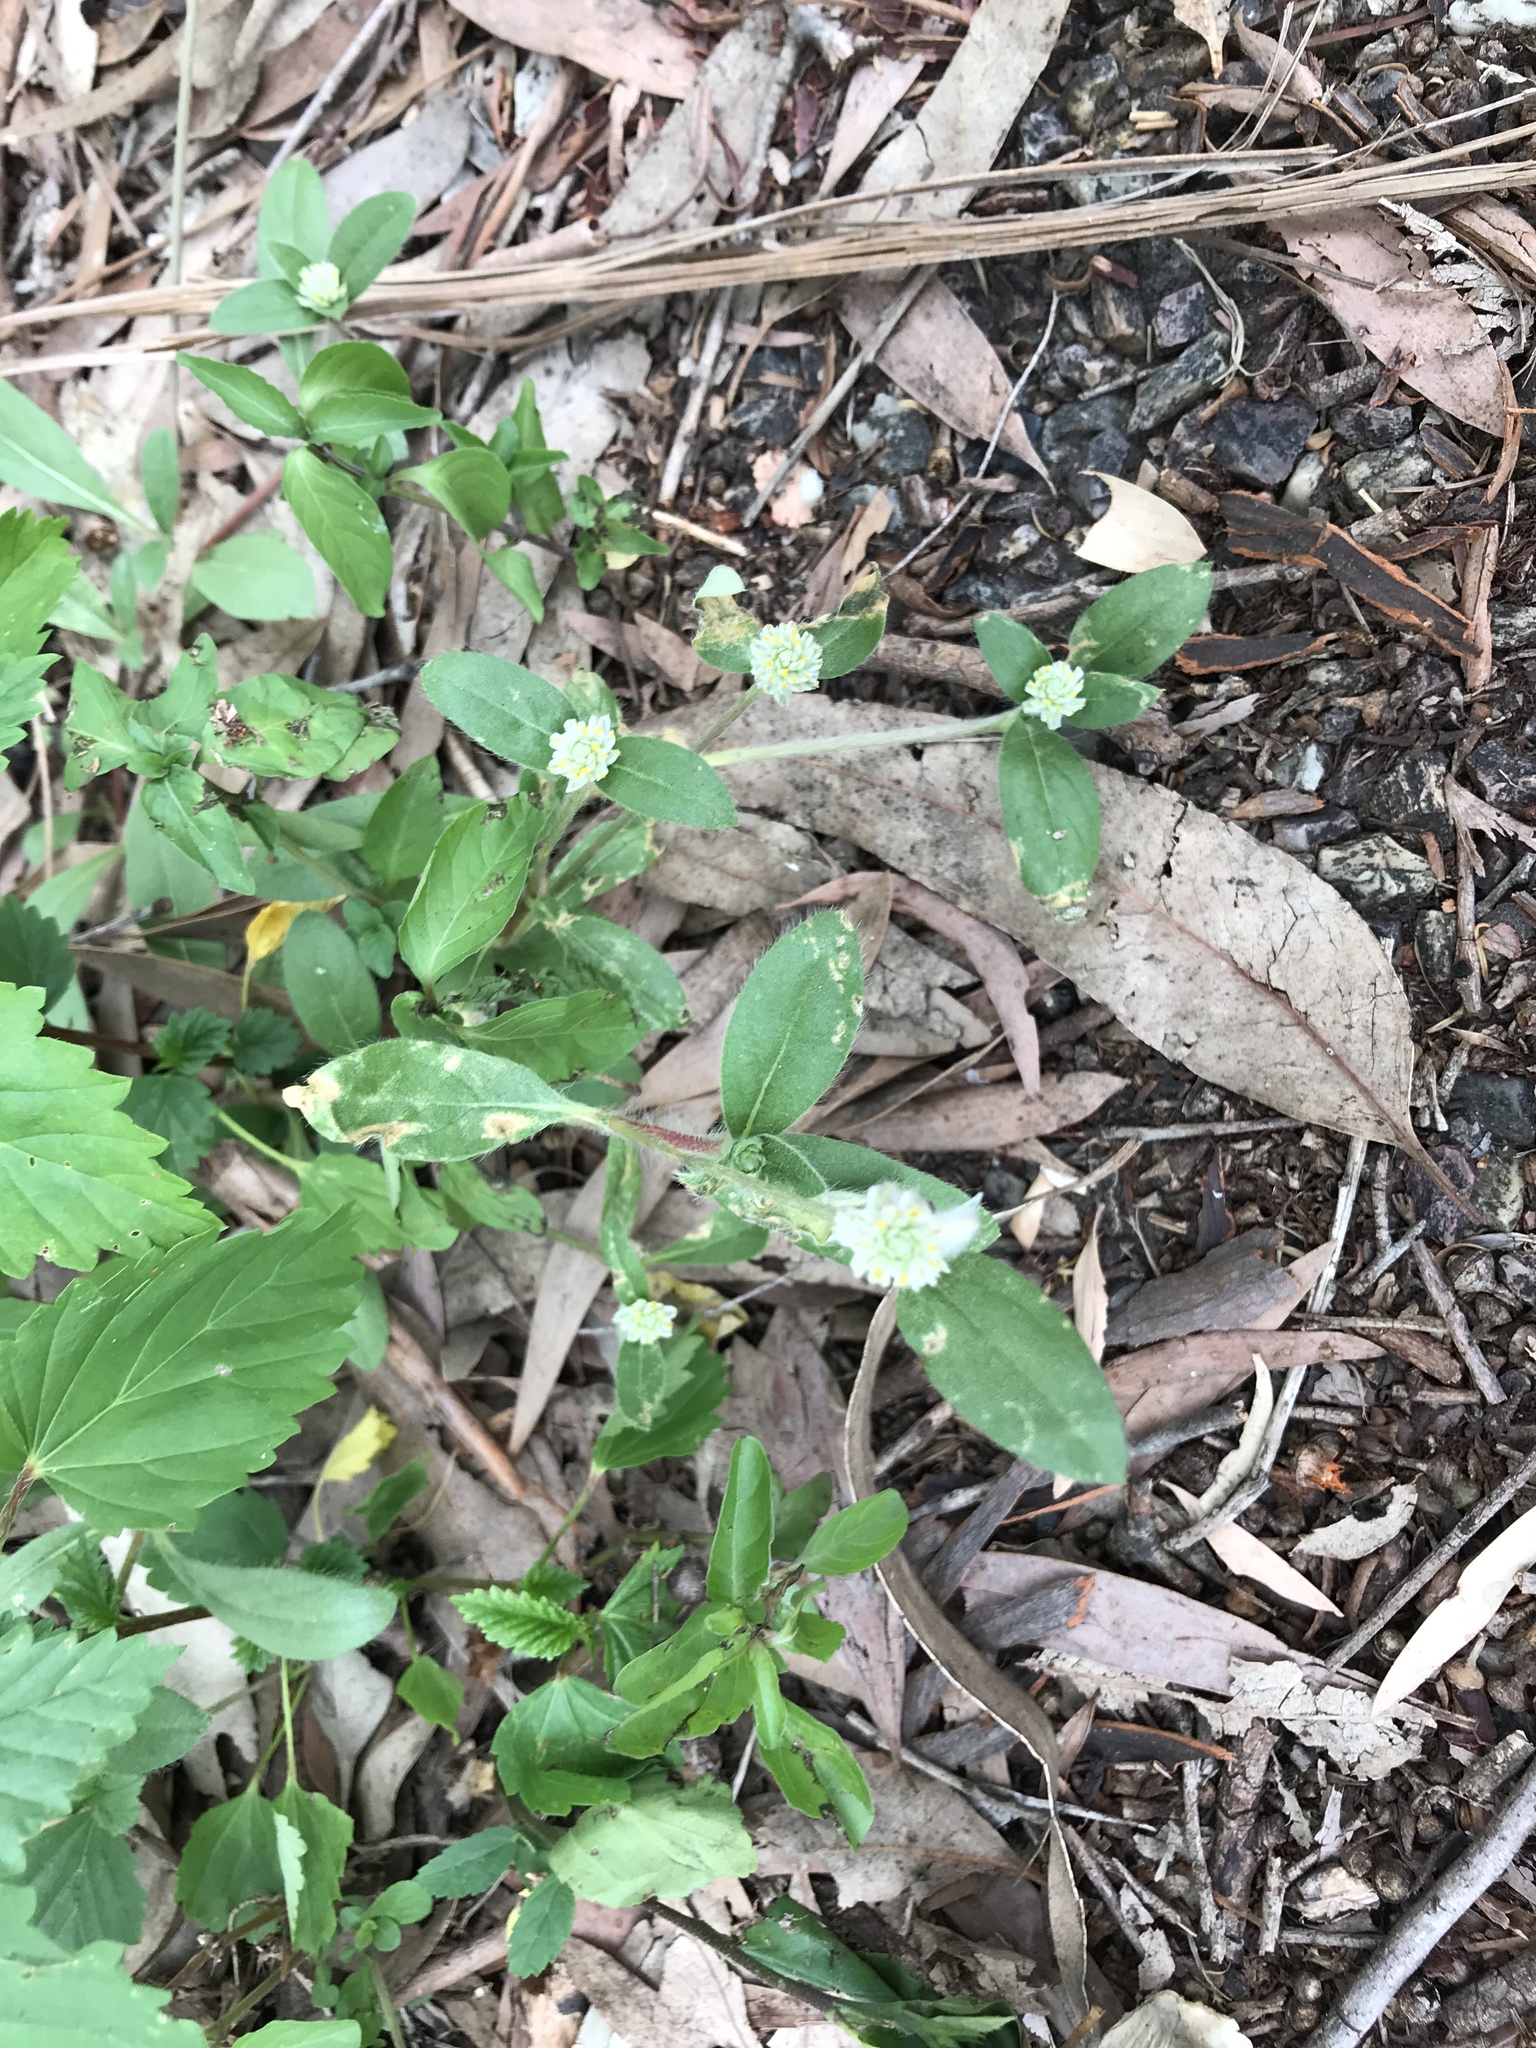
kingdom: Plantae
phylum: Tracheophyta
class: Magnoliopsida
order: Caryophyllales
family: Amaranthaceae
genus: Gomphrena
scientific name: Gomphrena celosioides
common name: Gomphrena-weed
